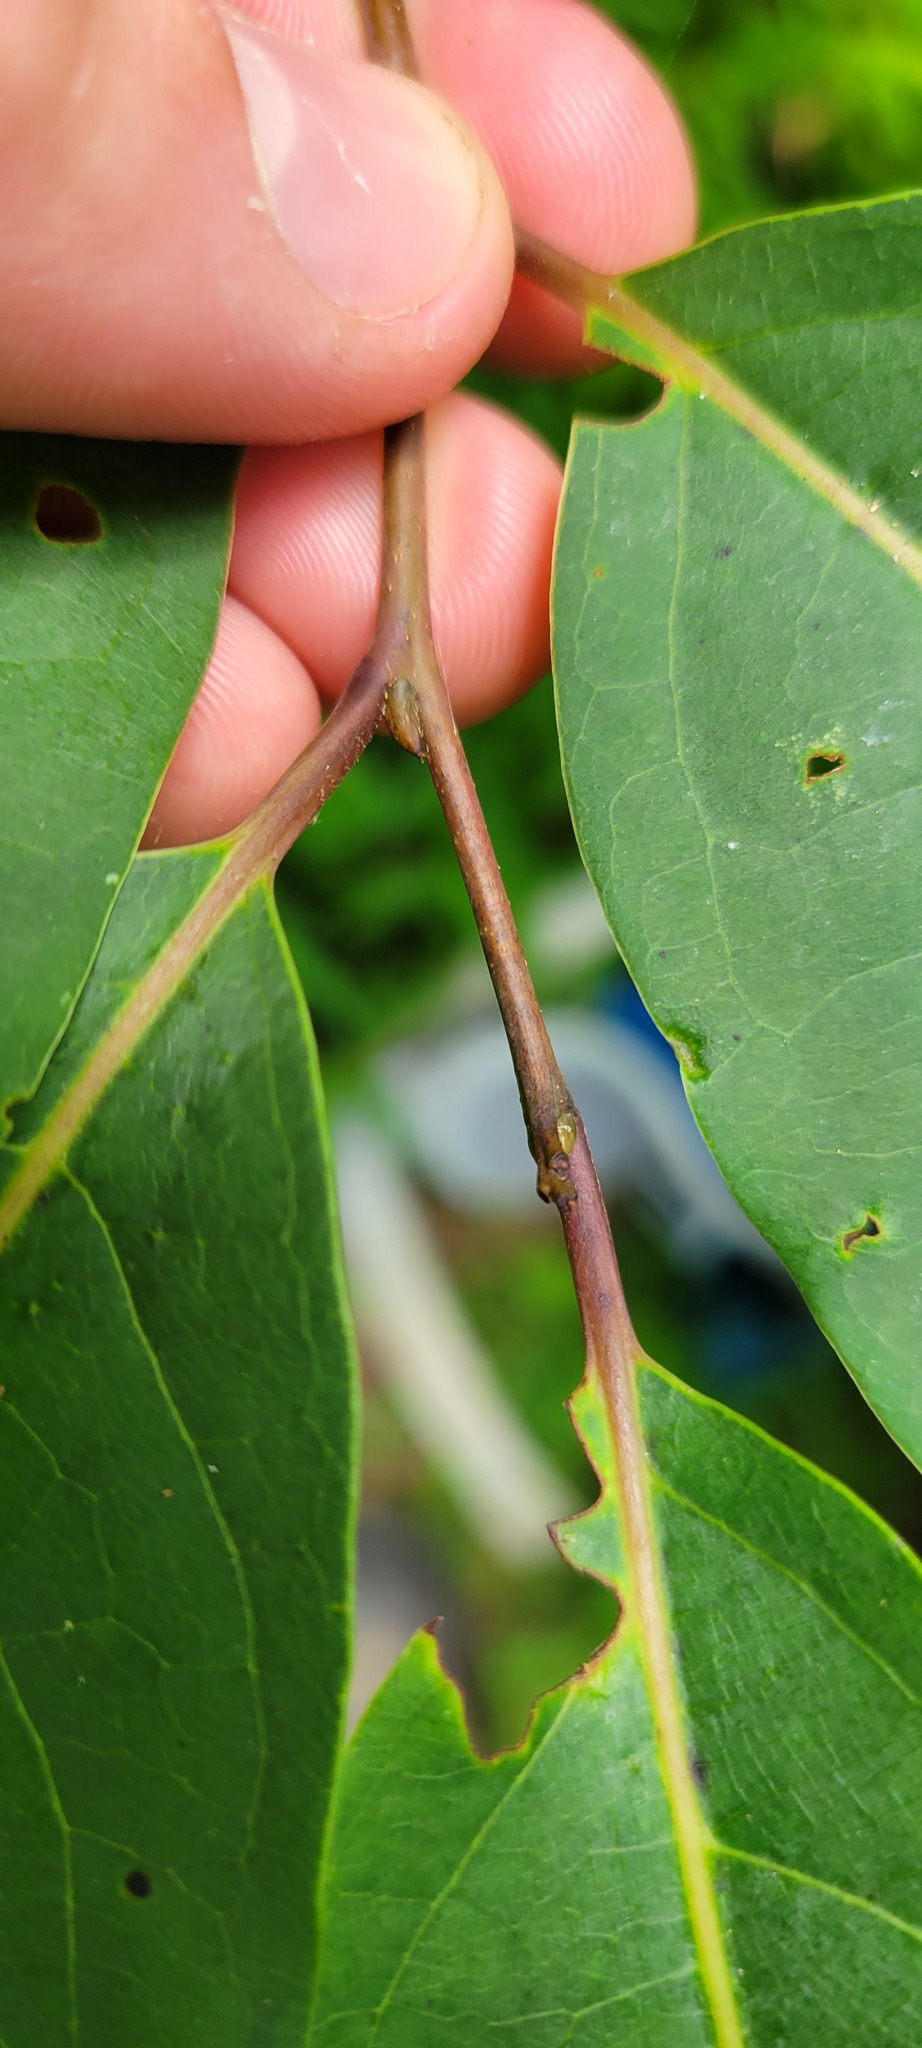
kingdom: Plantae
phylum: Tracheophyta
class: Magnoliopsida
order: Ericales
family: Ebenaceae
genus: Diospyros
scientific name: Diospyros virginiana
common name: Persimmon
